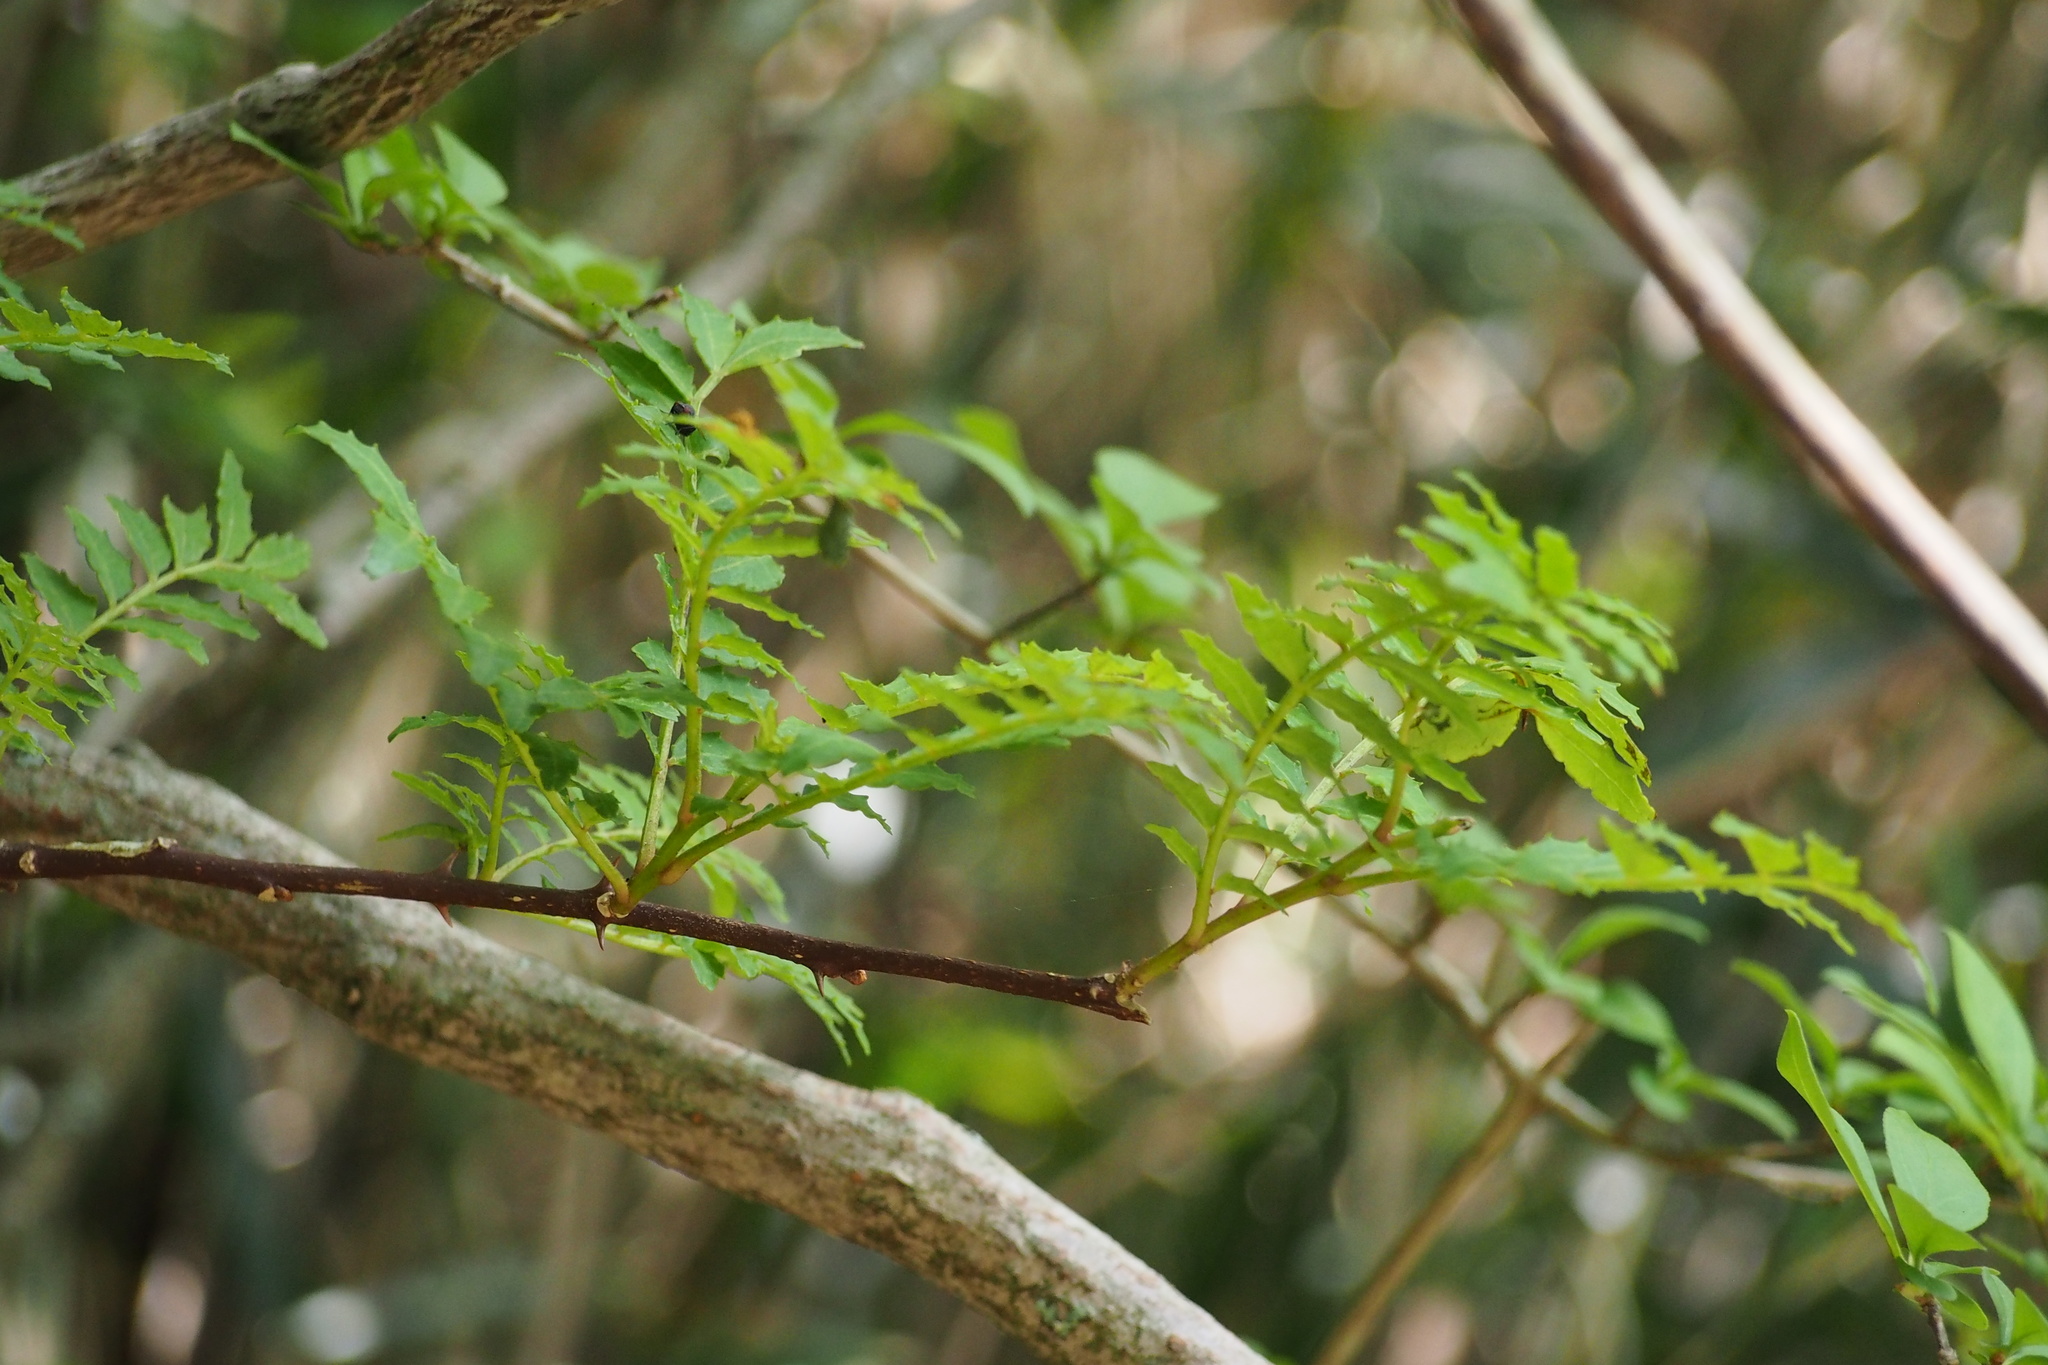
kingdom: Plantae
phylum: Tracheophyta
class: Magnoliopsida
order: Sapindales
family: Rutaceae
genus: Zanthoxylum
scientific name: Zanthoxylum piperitum
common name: Japanese-pepper
